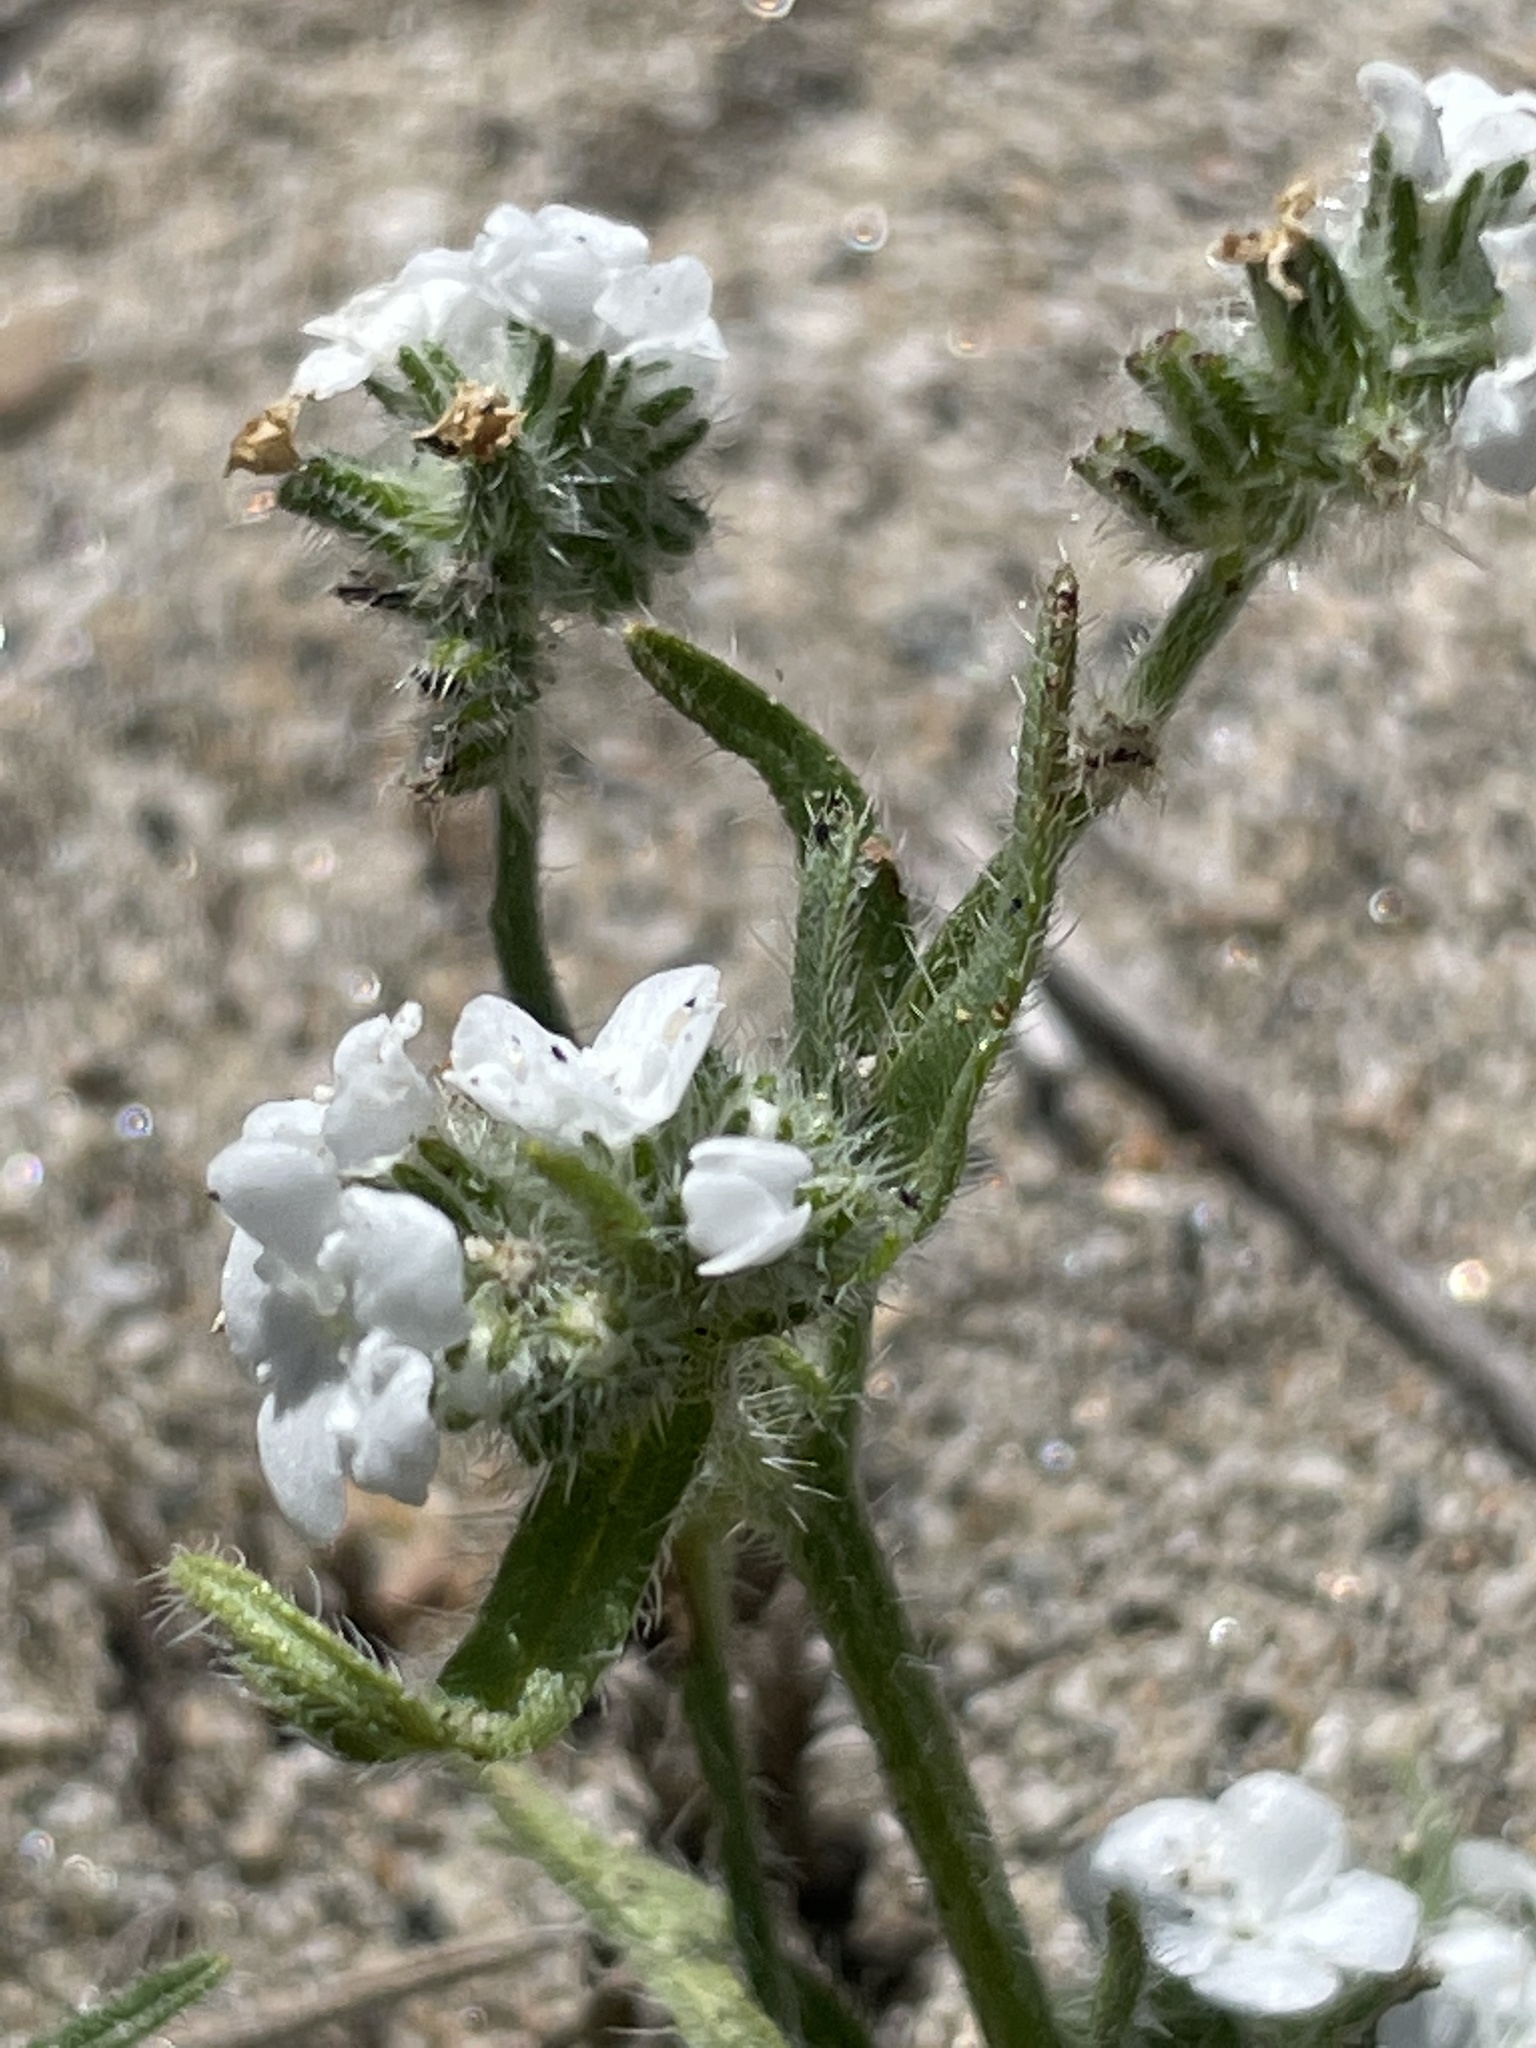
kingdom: Plantae
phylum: Tracheophyta
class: Magnoliopsida
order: Boraginales
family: Boraginaceae
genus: Cryptantha
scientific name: Cryptantha intermedia
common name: Clearwater cryptantha
